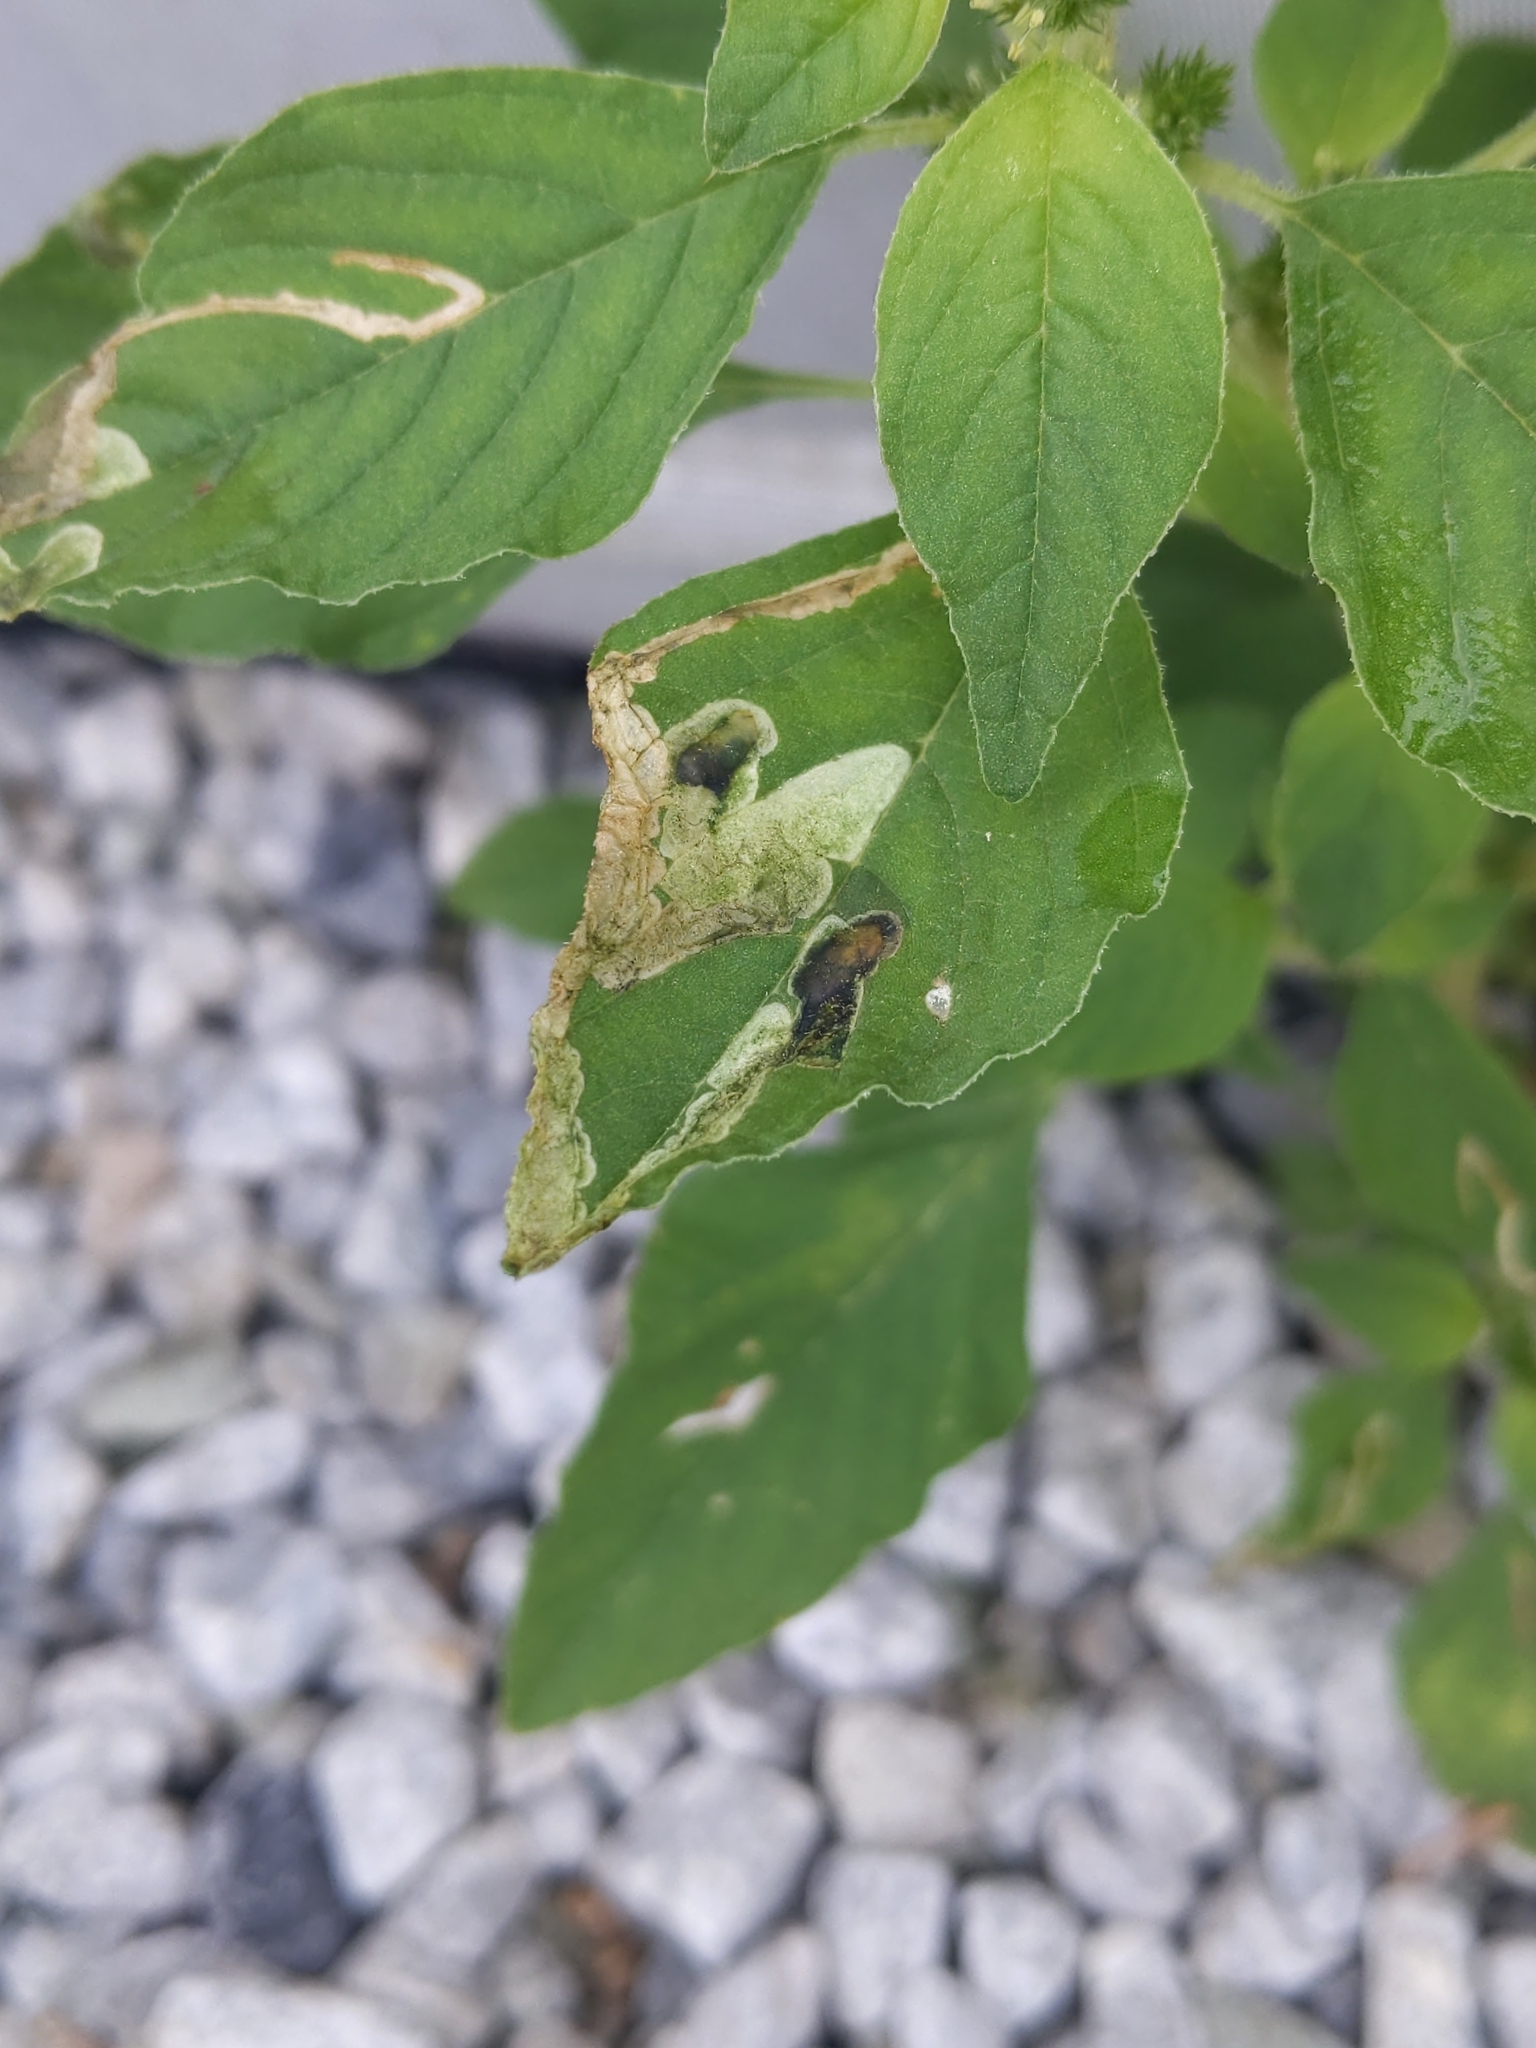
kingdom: Animalia
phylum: Arthropoda
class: Insecta
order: Diptera
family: Anthomyiidae
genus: Pegomya
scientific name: Pegomya wygodzinskyi
